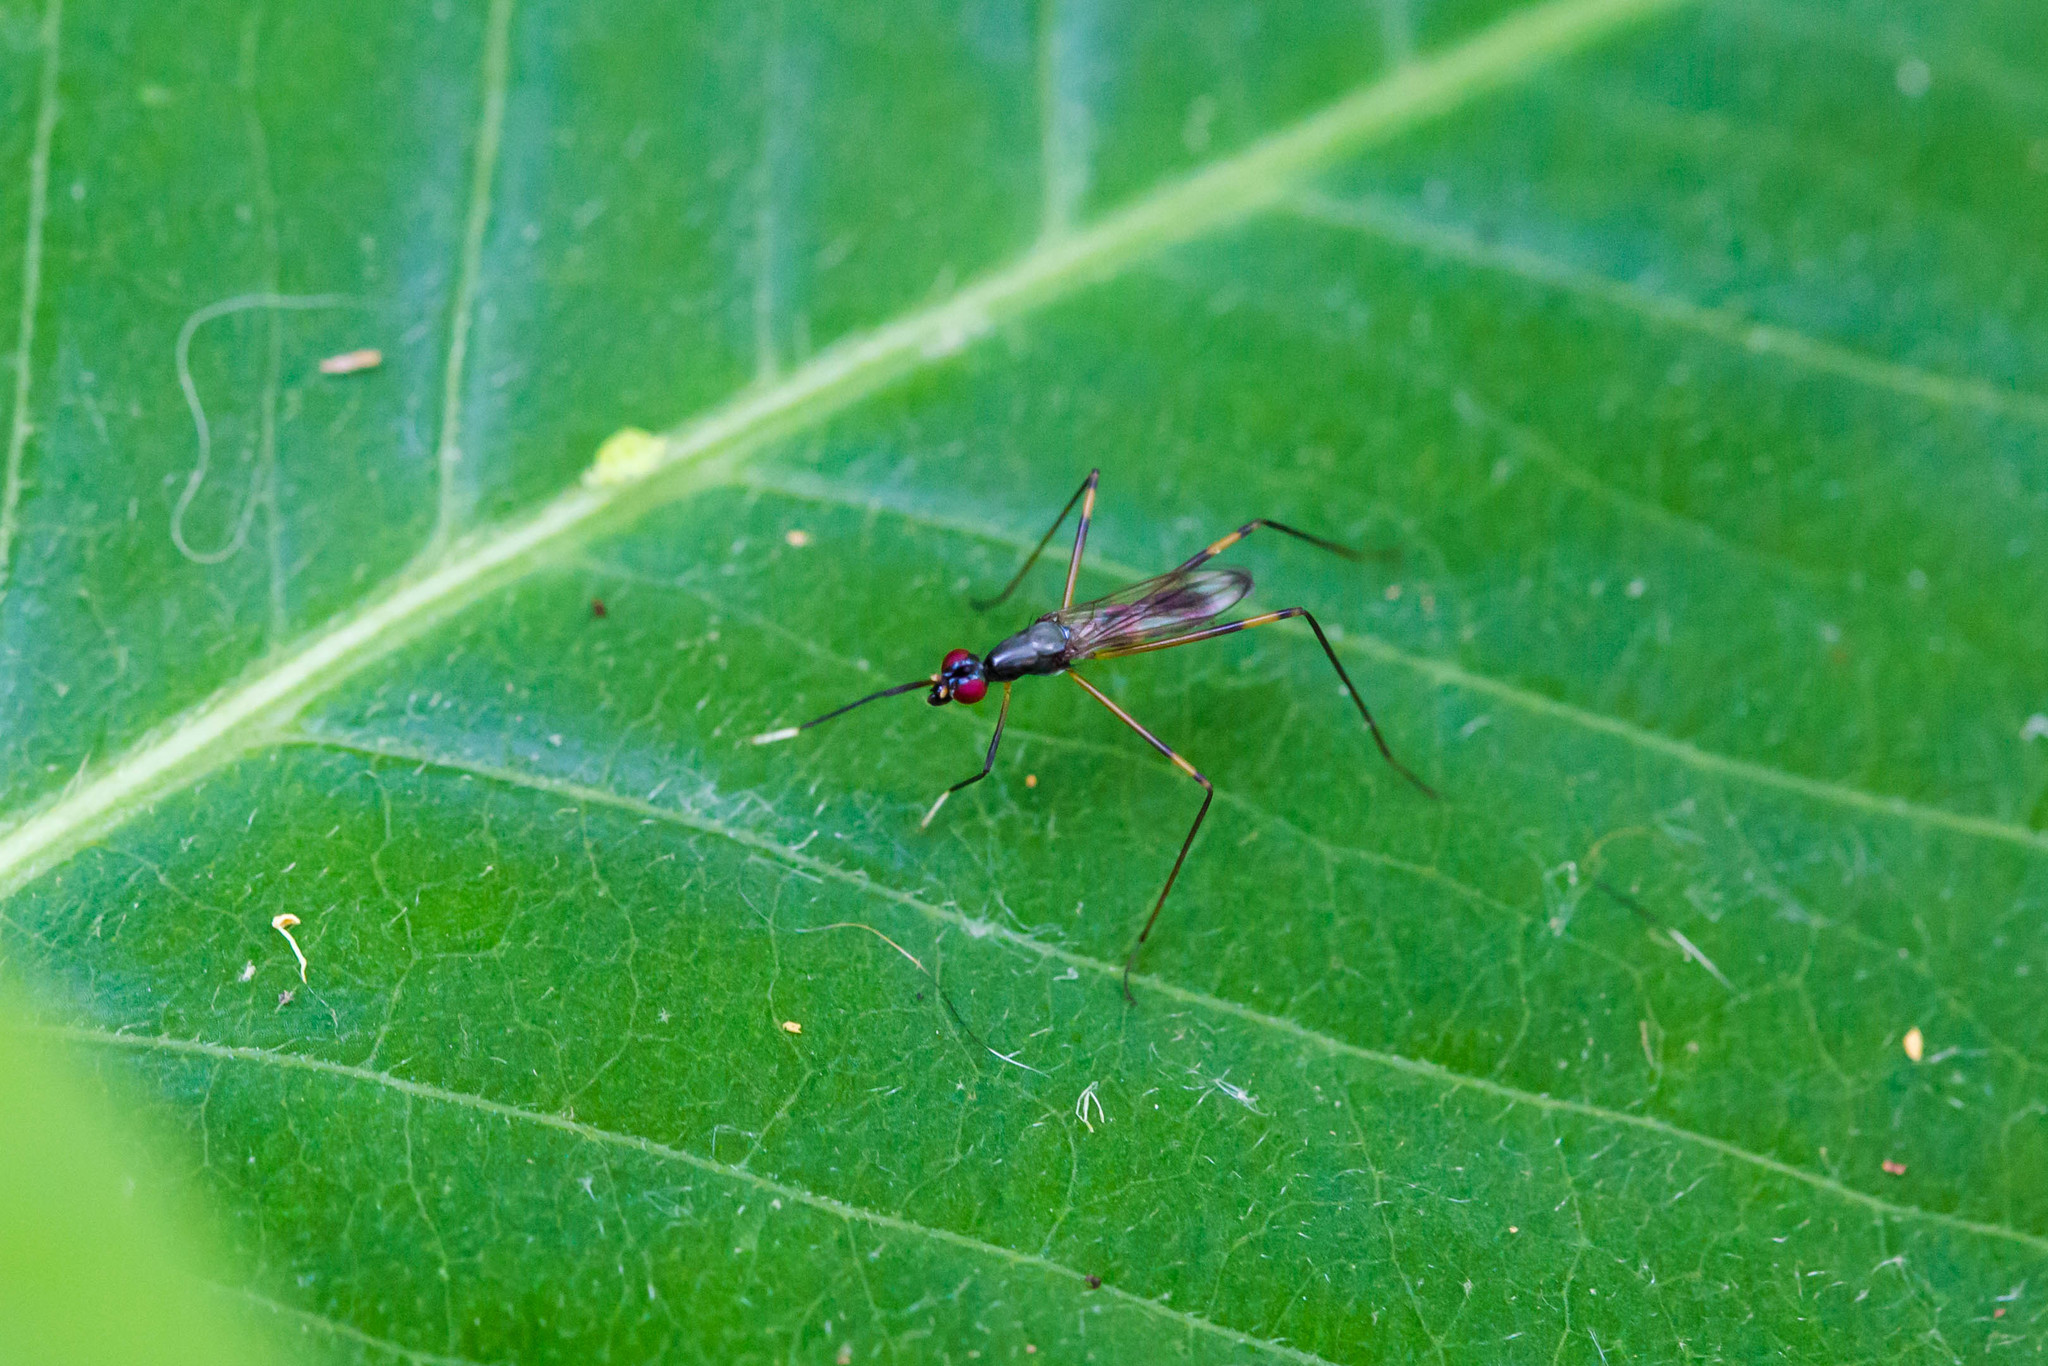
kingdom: Animalia
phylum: Arthropoda
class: Insecta
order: Diptera
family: Micropezidae
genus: Rainieria
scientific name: Rainieria antennaepes
